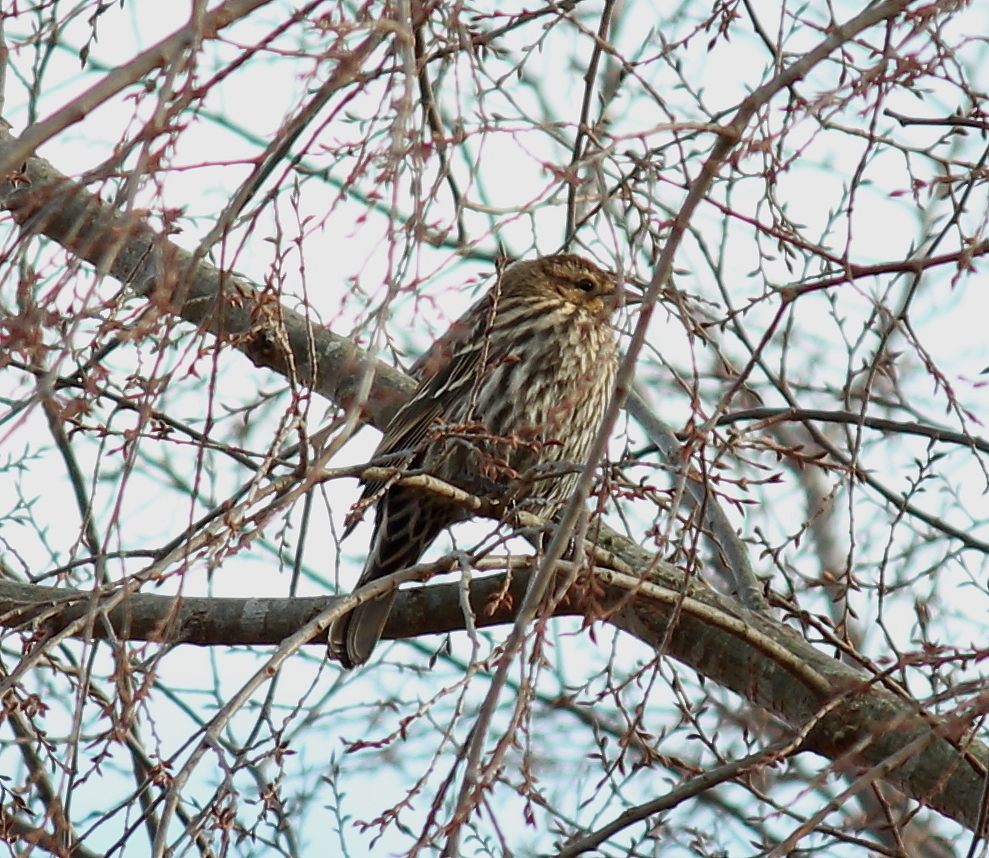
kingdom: Animalia
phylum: Chordata
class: Aves
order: Passeriformes
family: Icteridae
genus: Agelaius
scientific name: Agelaius phoeniceus
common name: Red-winged blackbird
